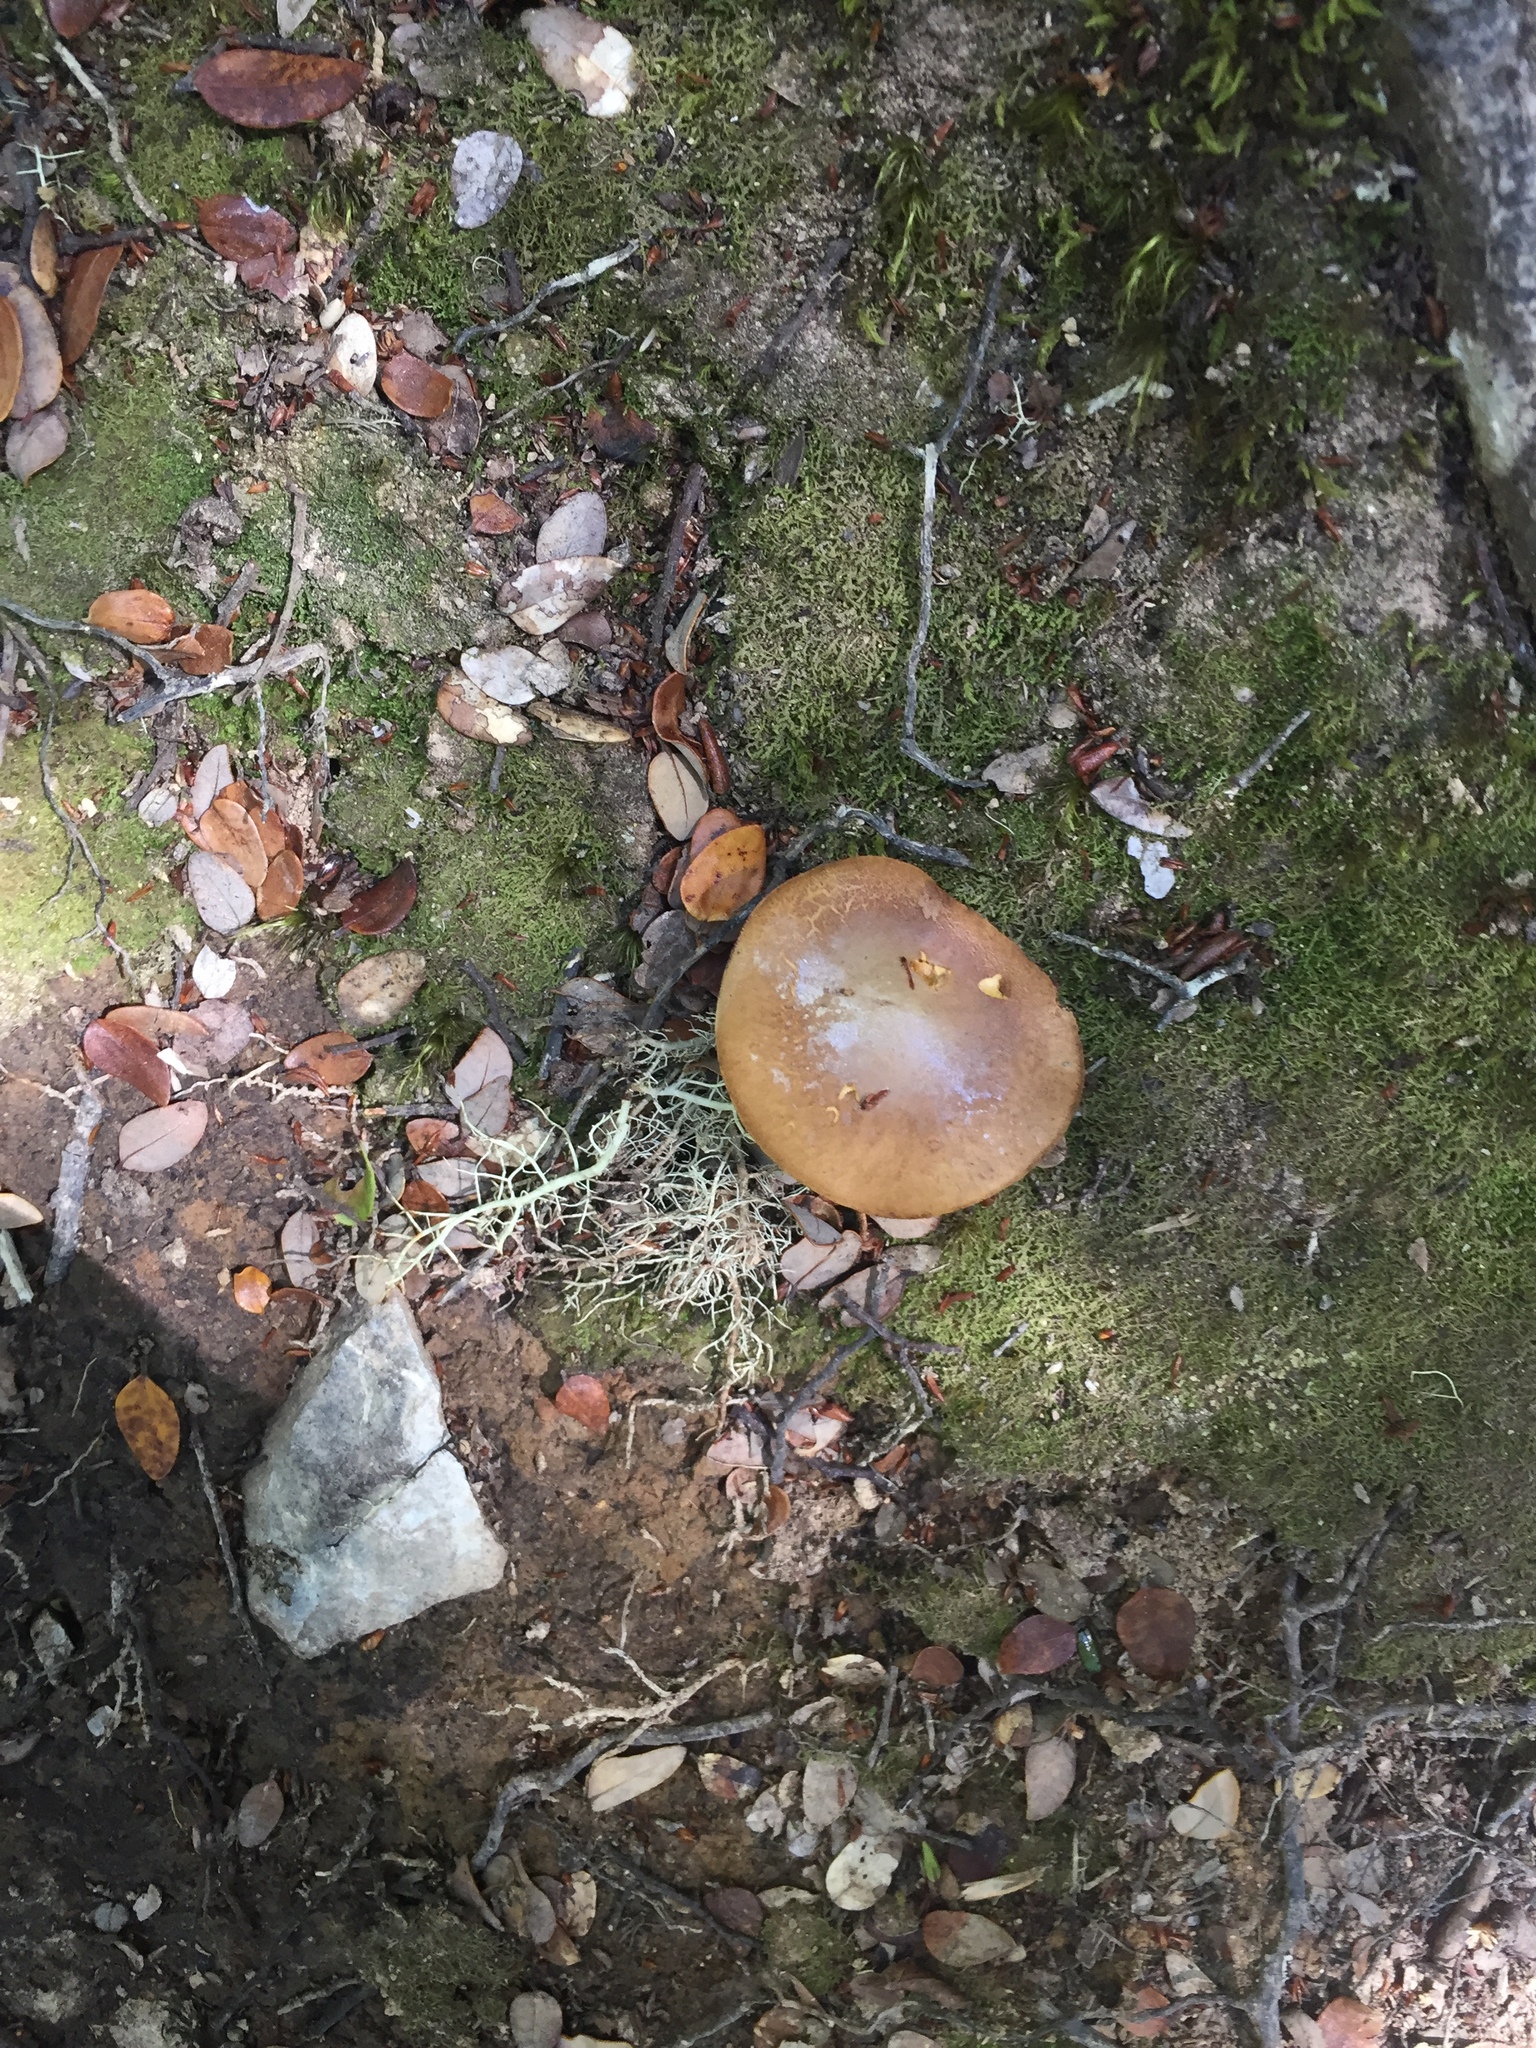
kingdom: Fungi
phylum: Basidiomycota
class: Agaricomycetes
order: Boletales
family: Boletaceae
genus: Chalciporus
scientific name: Chalciporus piperatus
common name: Peppery bolete
